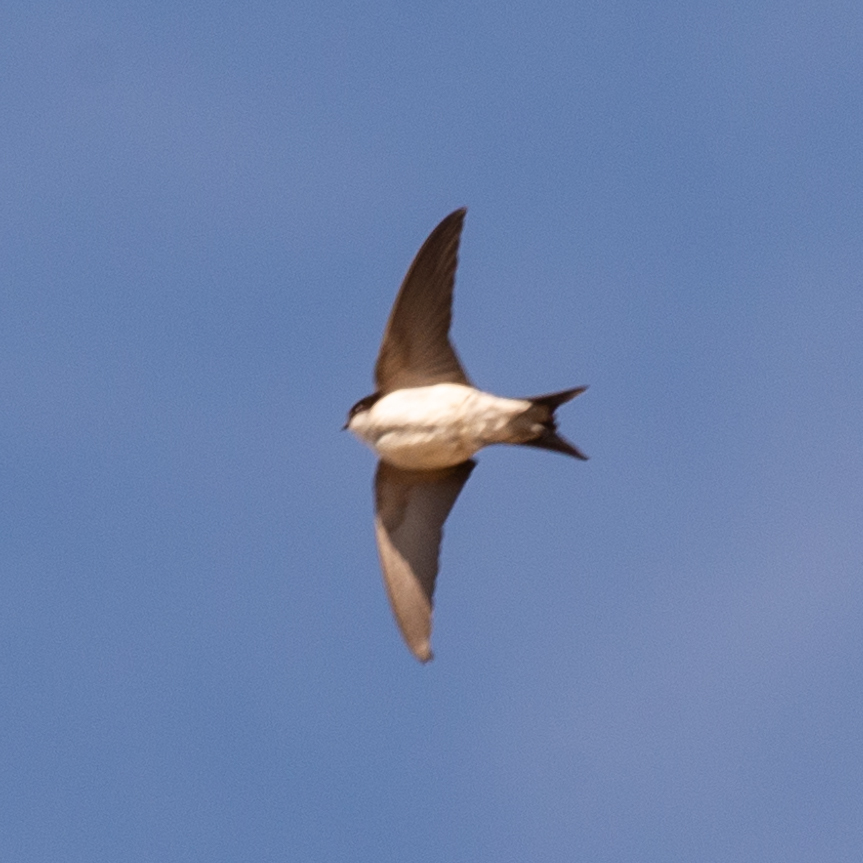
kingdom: Animalia
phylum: Chordata
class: Aves
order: Passeriformes
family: Hirundinidae
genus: Delichon
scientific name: Delichon urbicum
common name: Common house martin
